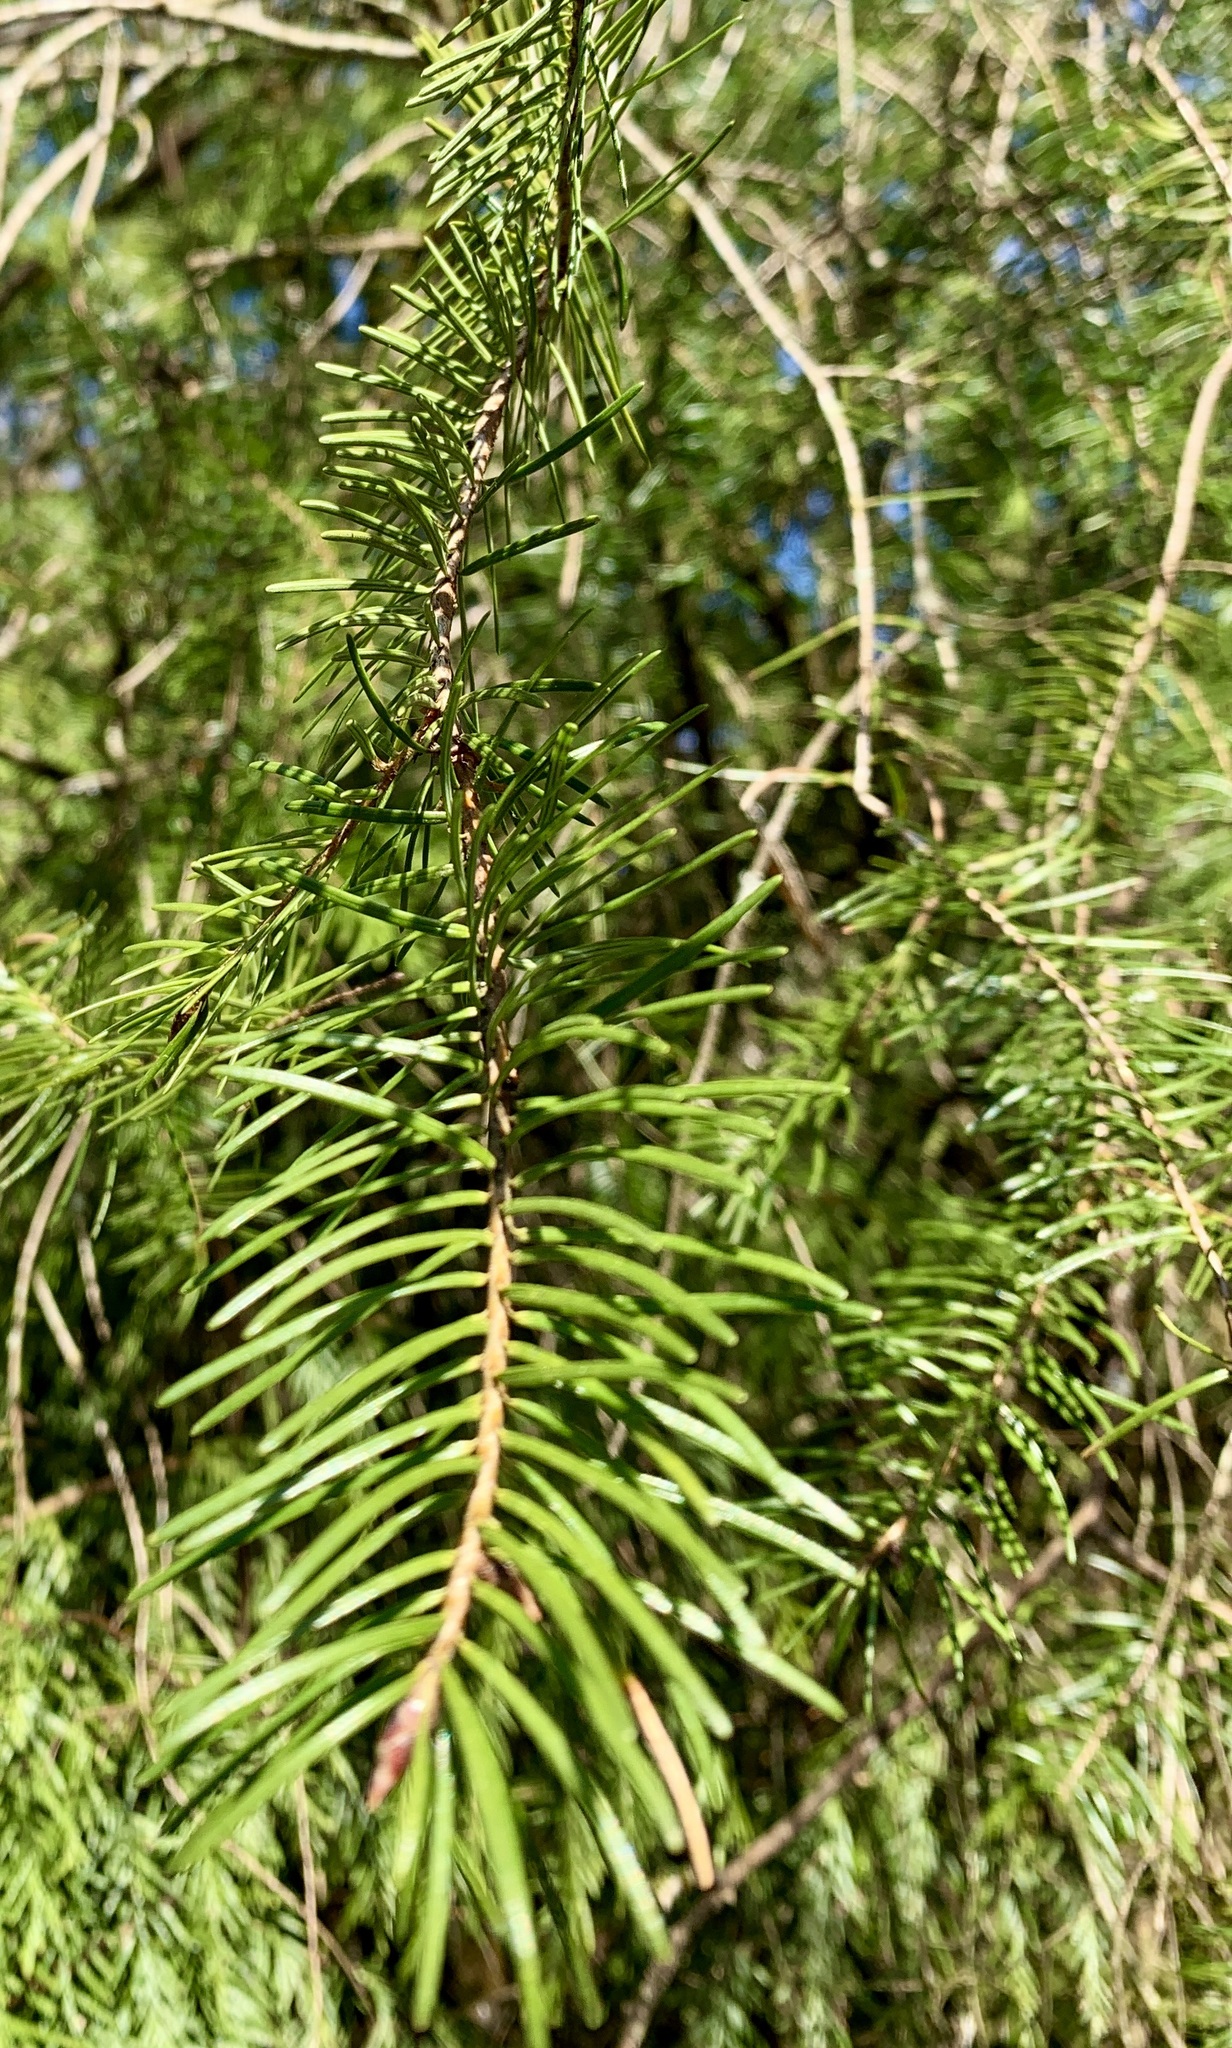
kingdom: Plantae
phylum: Tracheophyta
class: Pinopsida
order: Pinales
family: Pinaceae
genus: Pseudotsuga
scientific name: Pseudotsuga menziesii
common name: Douglas fir
